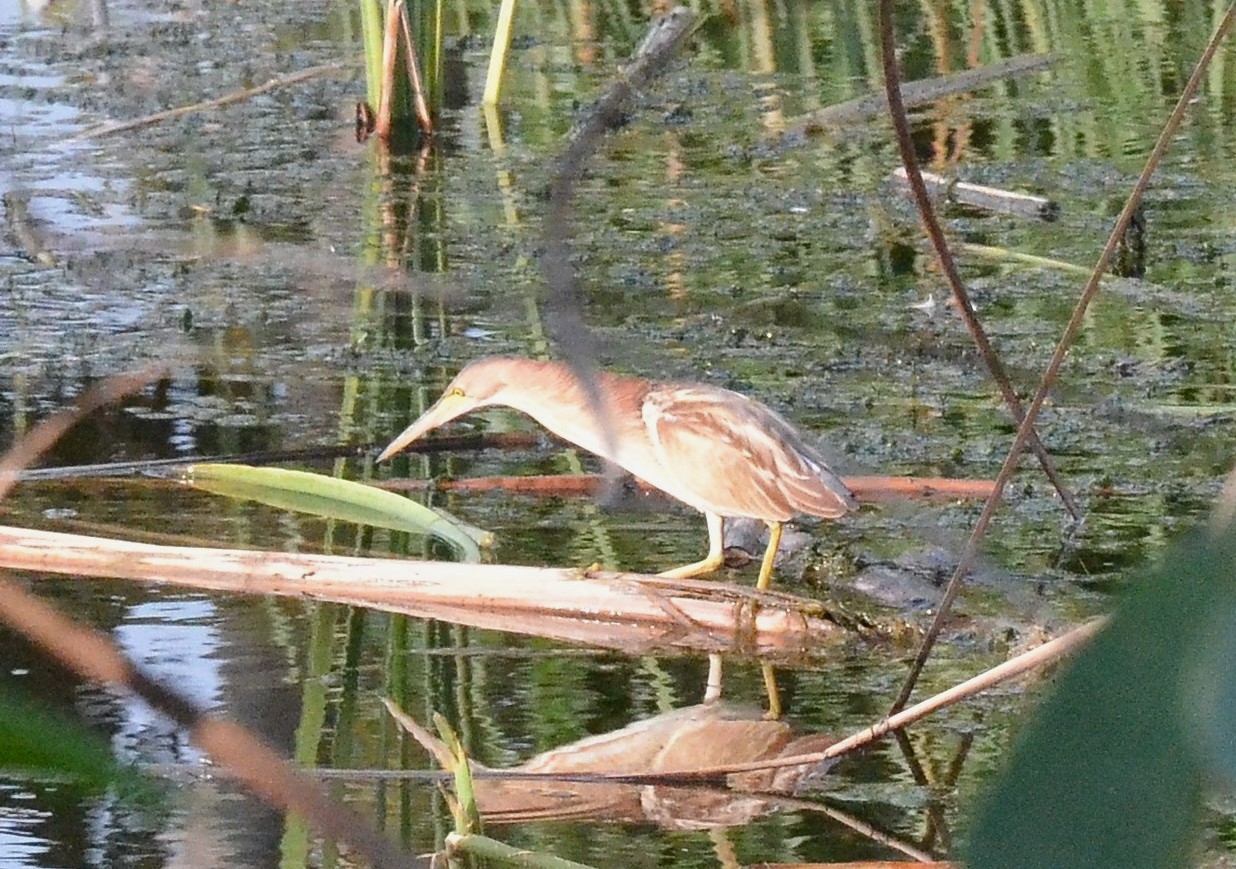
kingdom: Animalia
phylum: Chordata
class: Aves
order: Pelecaniformes
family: Ardeidae
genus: Ixobrychus
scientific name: Ixobrychus sinensis
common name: Yellow bittern
